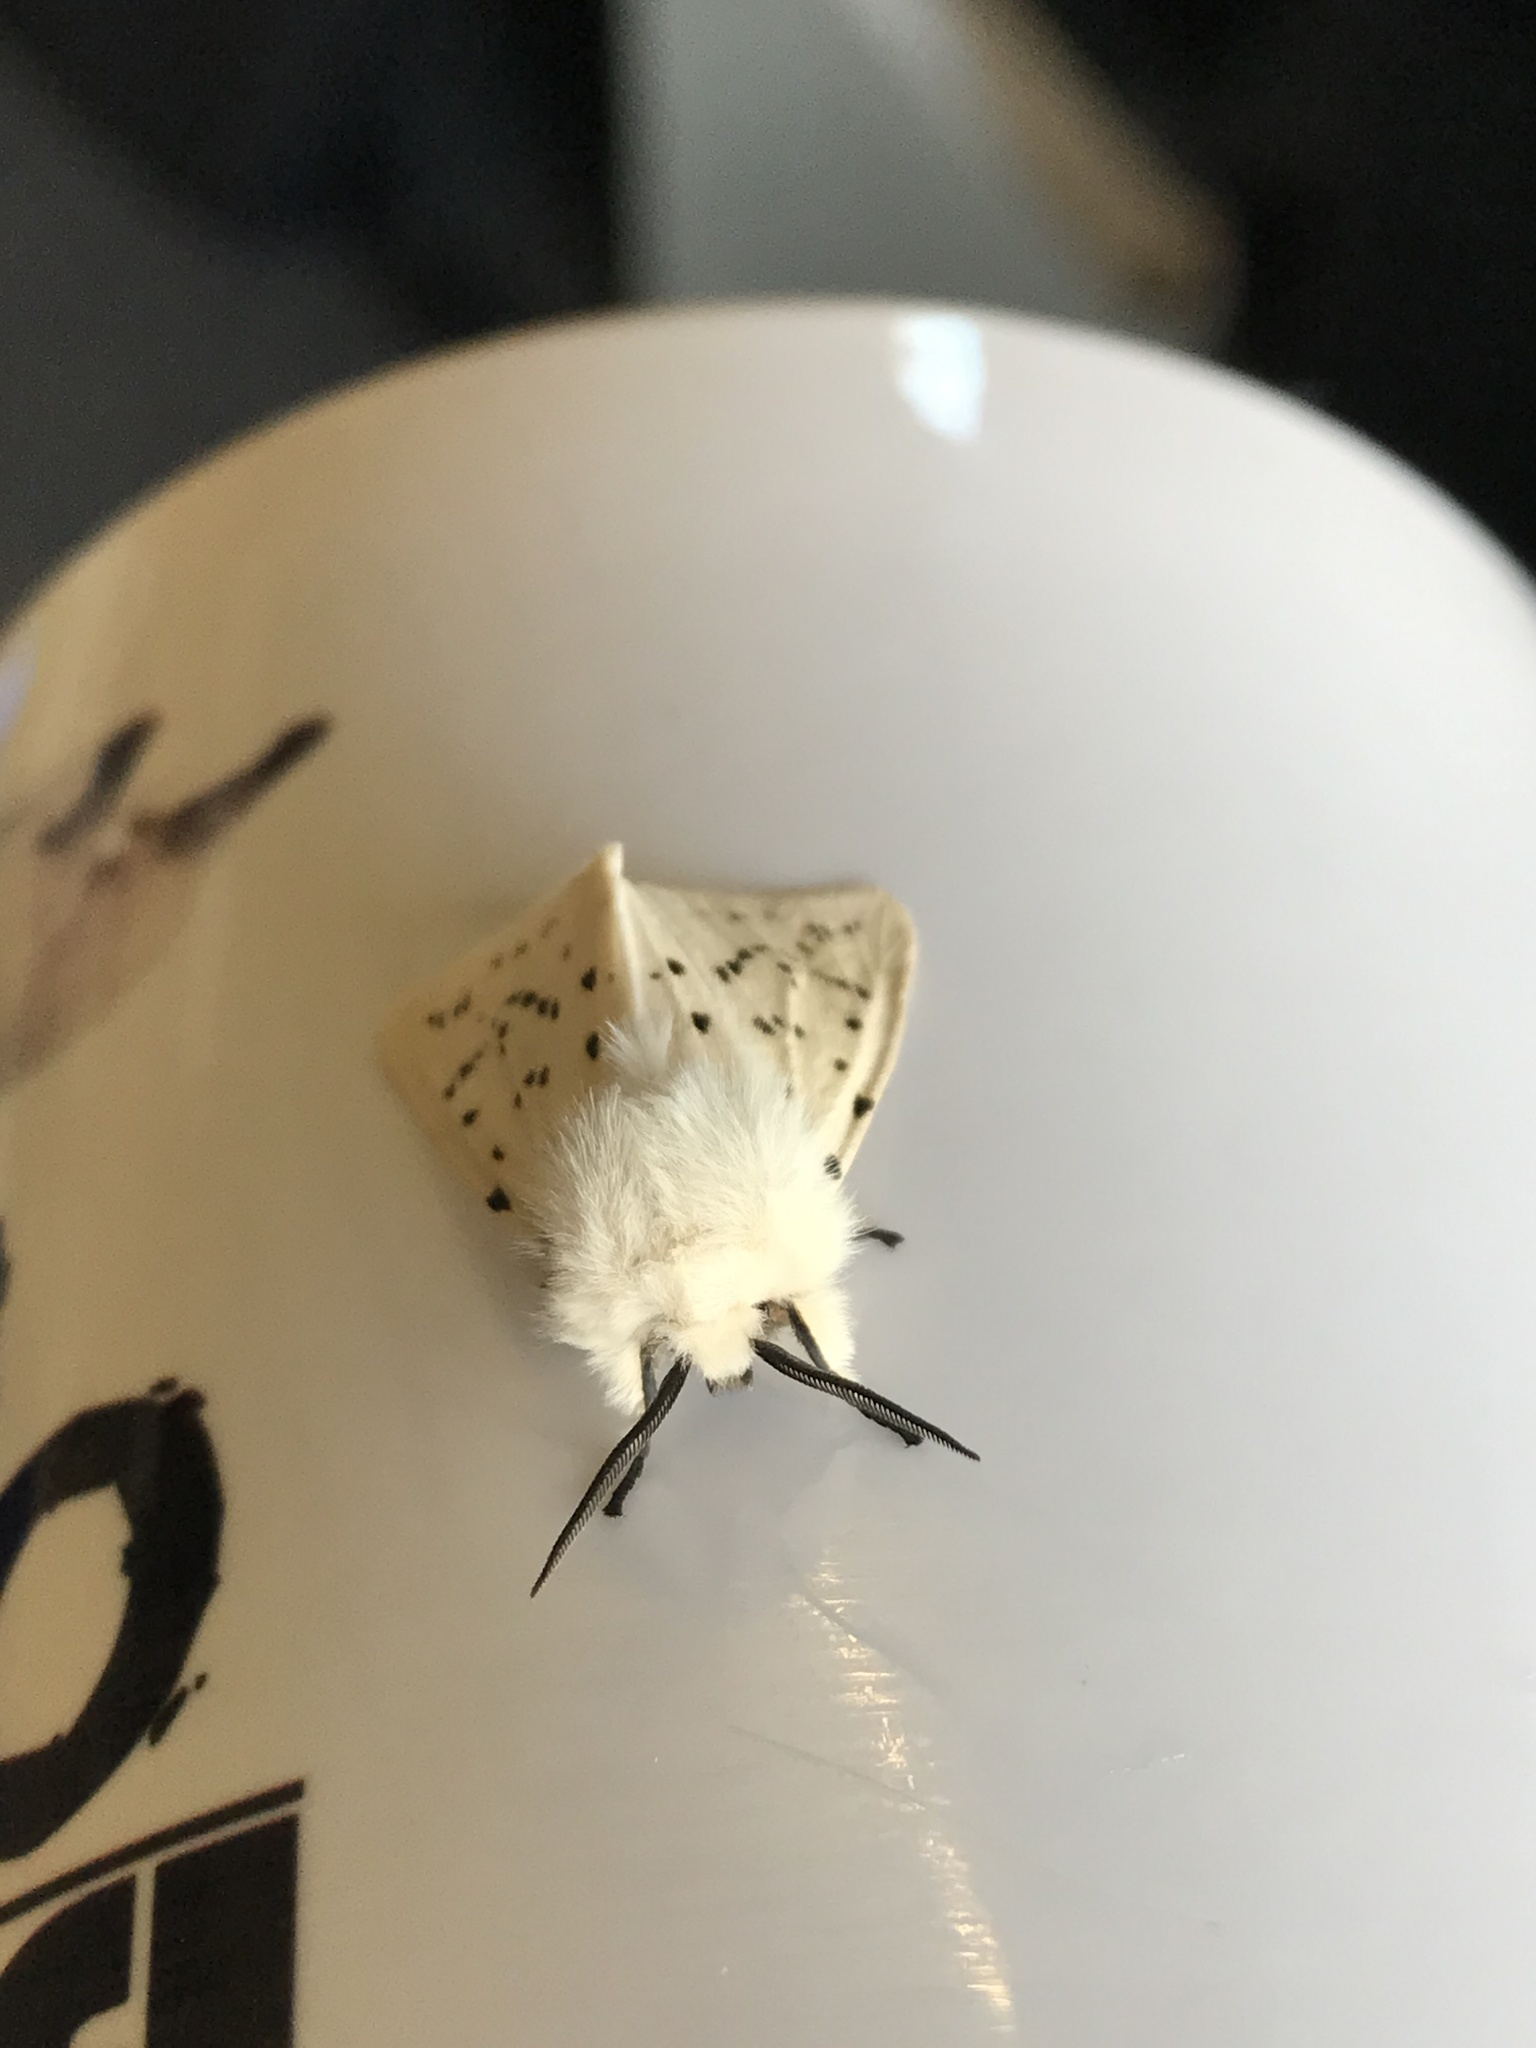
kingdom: Animalia
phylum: Arthropoda
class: Insecta
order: Lepidoptera
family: Erebidae
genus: Spilosoma
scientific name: Spilosoma lubricipeda
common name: White ermine
